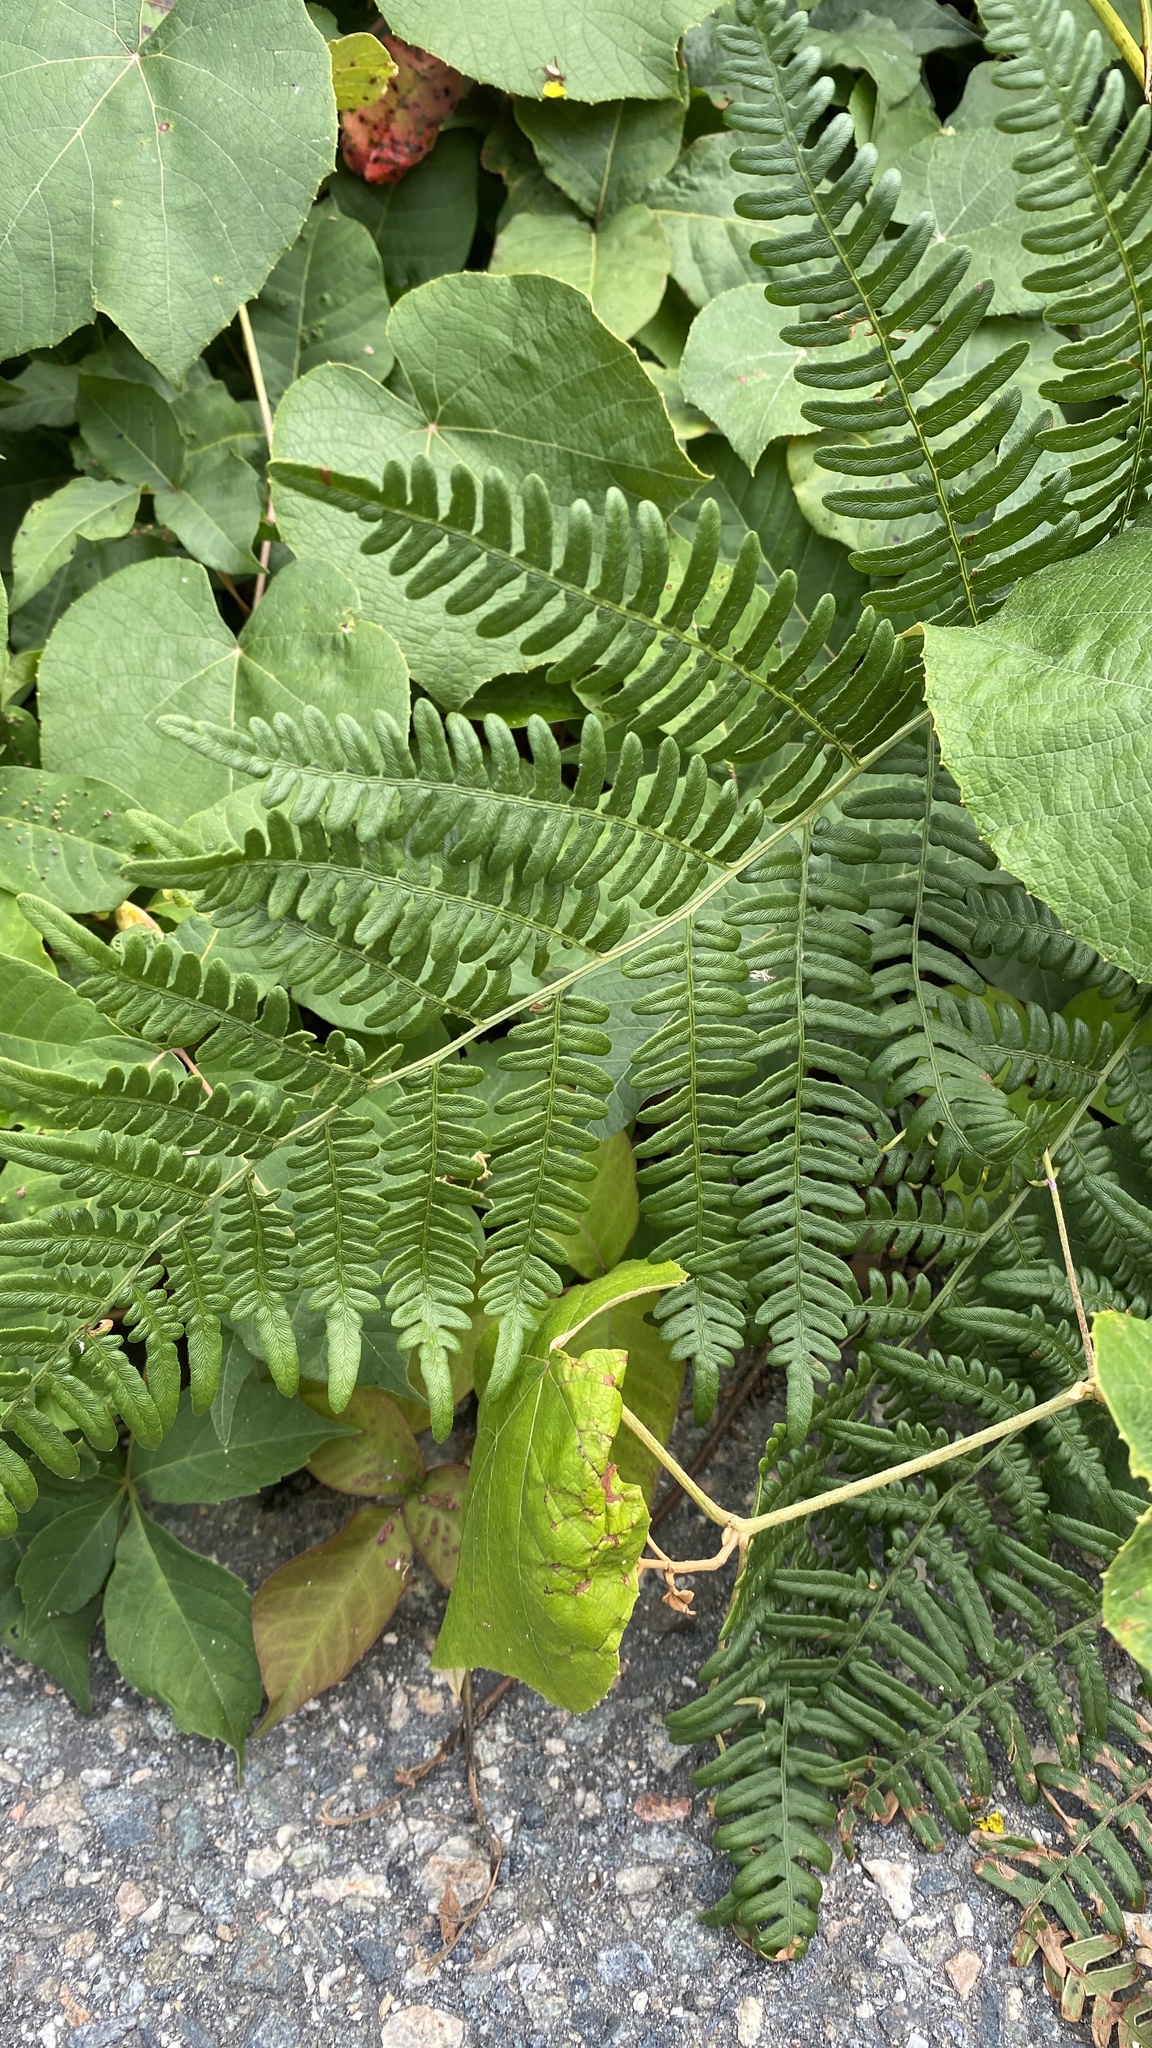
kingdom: Plantae
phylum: Tracheophyta
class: Polypodiopsida
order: Polypodiales
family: Dennstaedtiaceae
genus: Pteridium
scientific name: Pteridium aquilinum
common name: Bracken
